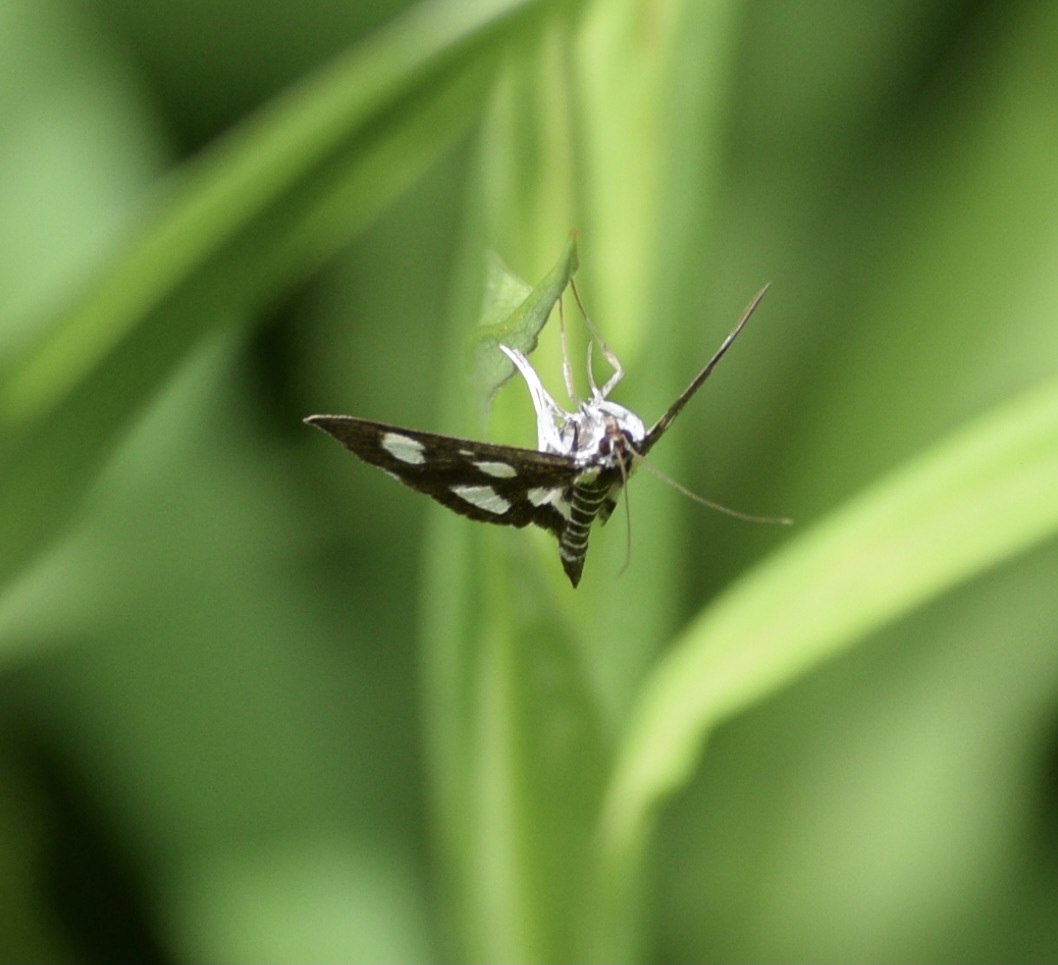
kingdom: Animalia
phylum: Arthropoda
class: Insecta
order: Lepidoptera
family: Crambidae
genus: Anania
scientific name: Anania funebris
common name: White-spotted sable moth
